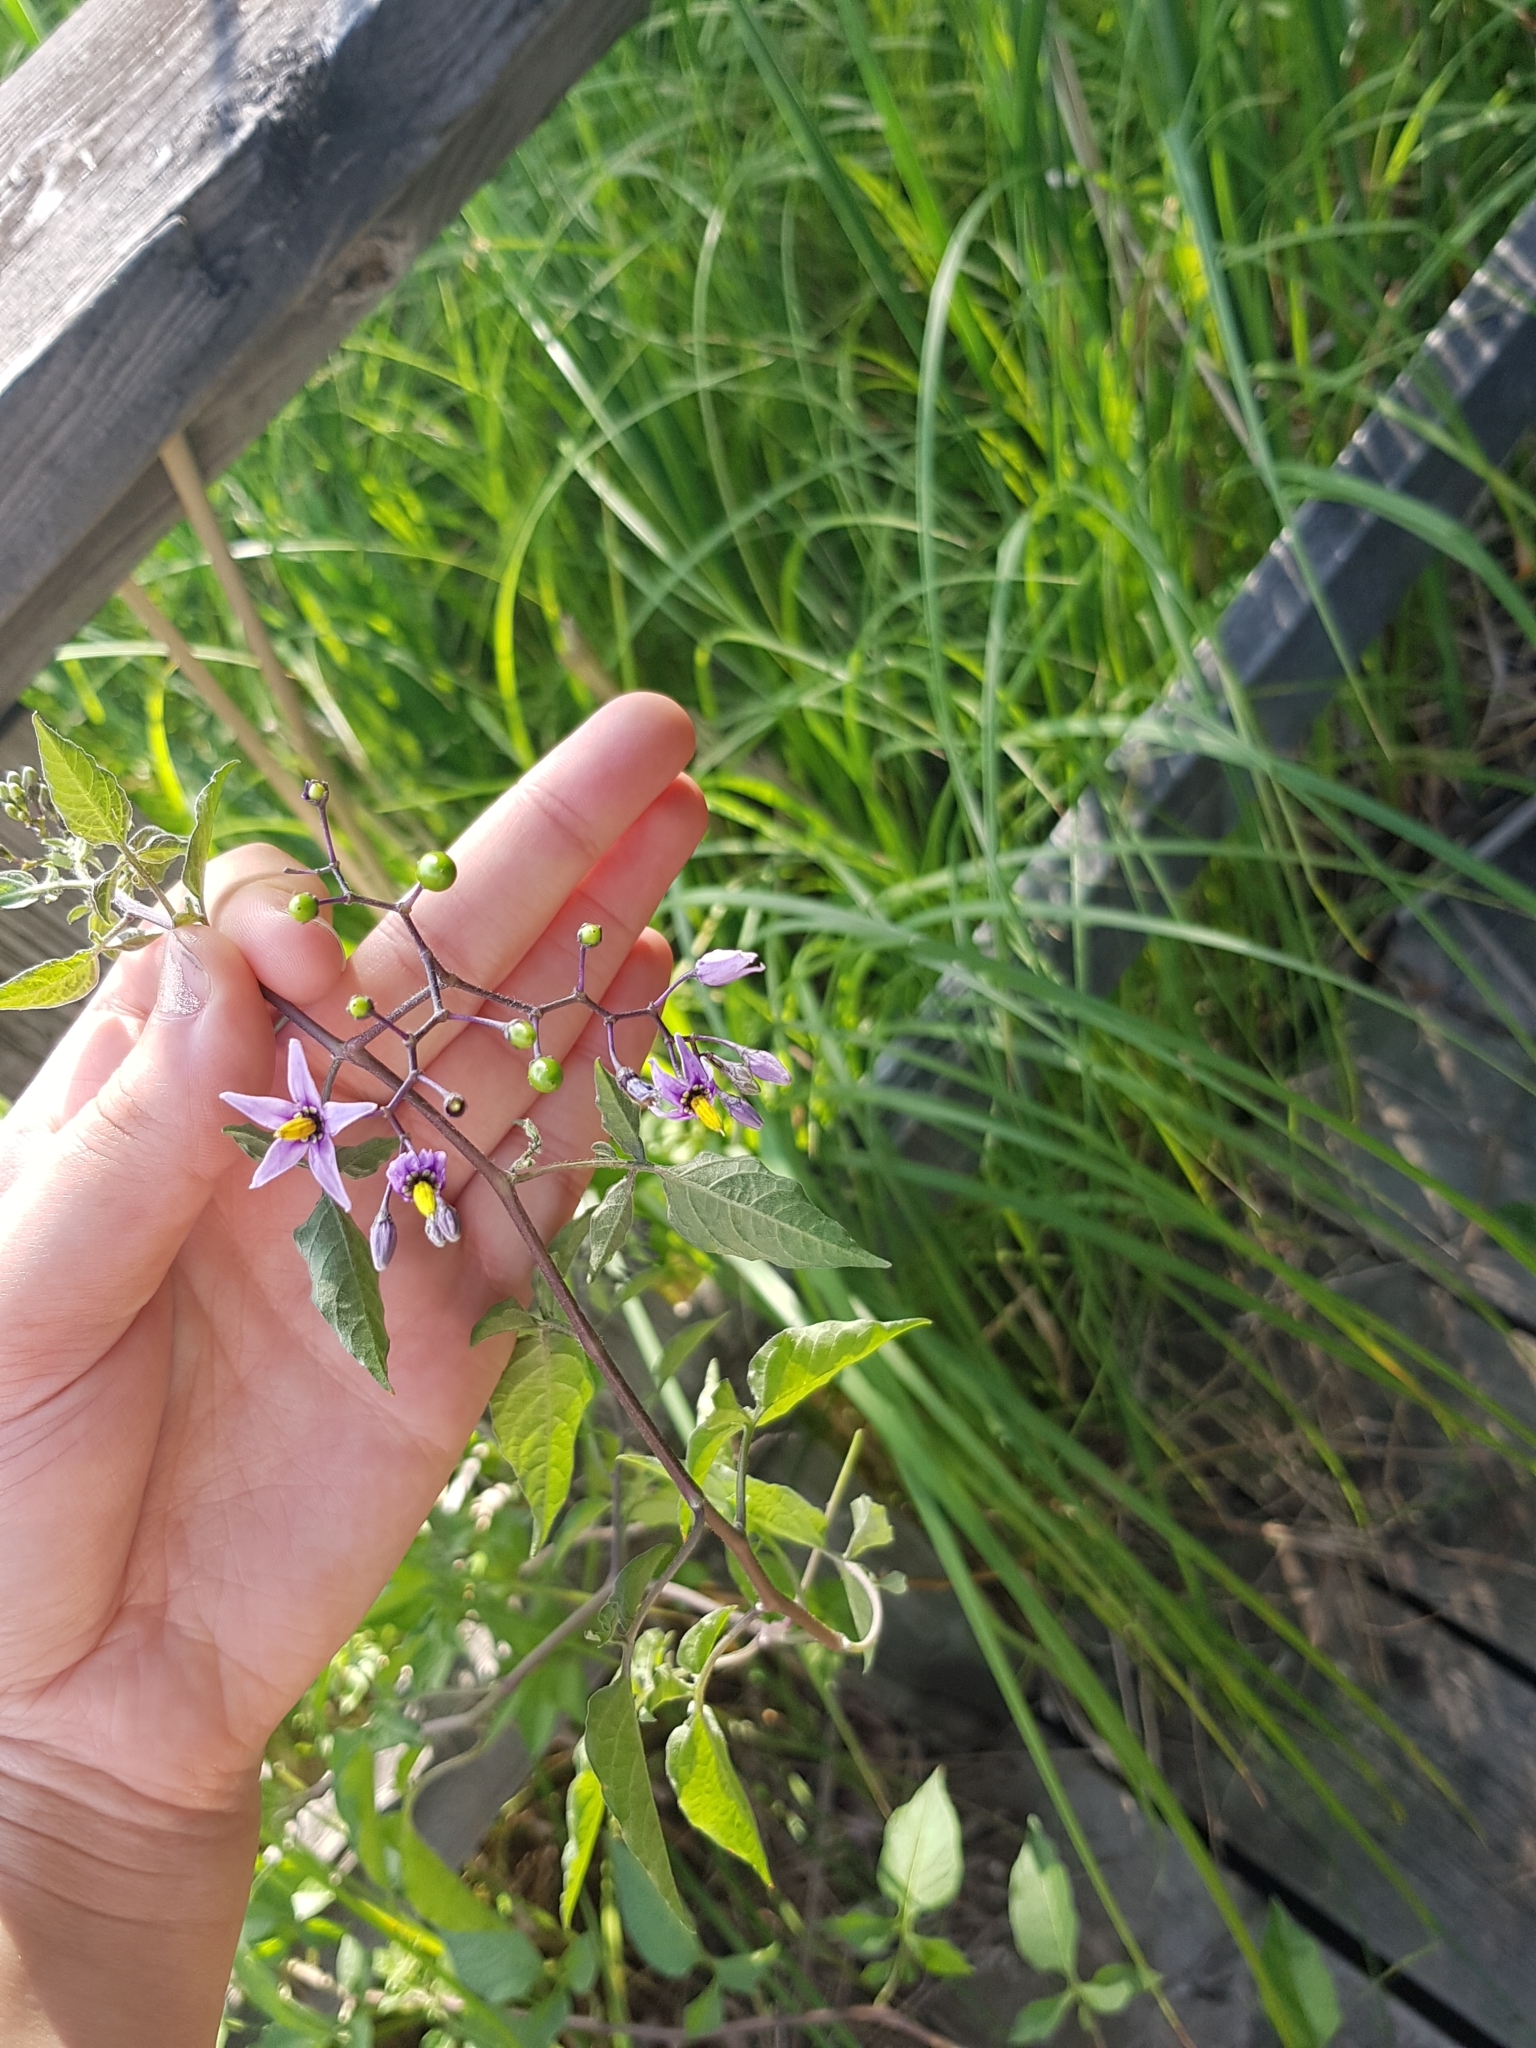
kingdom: Plantae
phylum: Tracheophyta
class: Magnoliopsida
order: Solanales
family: Solanaceae
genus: Solanum
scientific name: Solanum dulcamara
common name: Climbing nightshade
